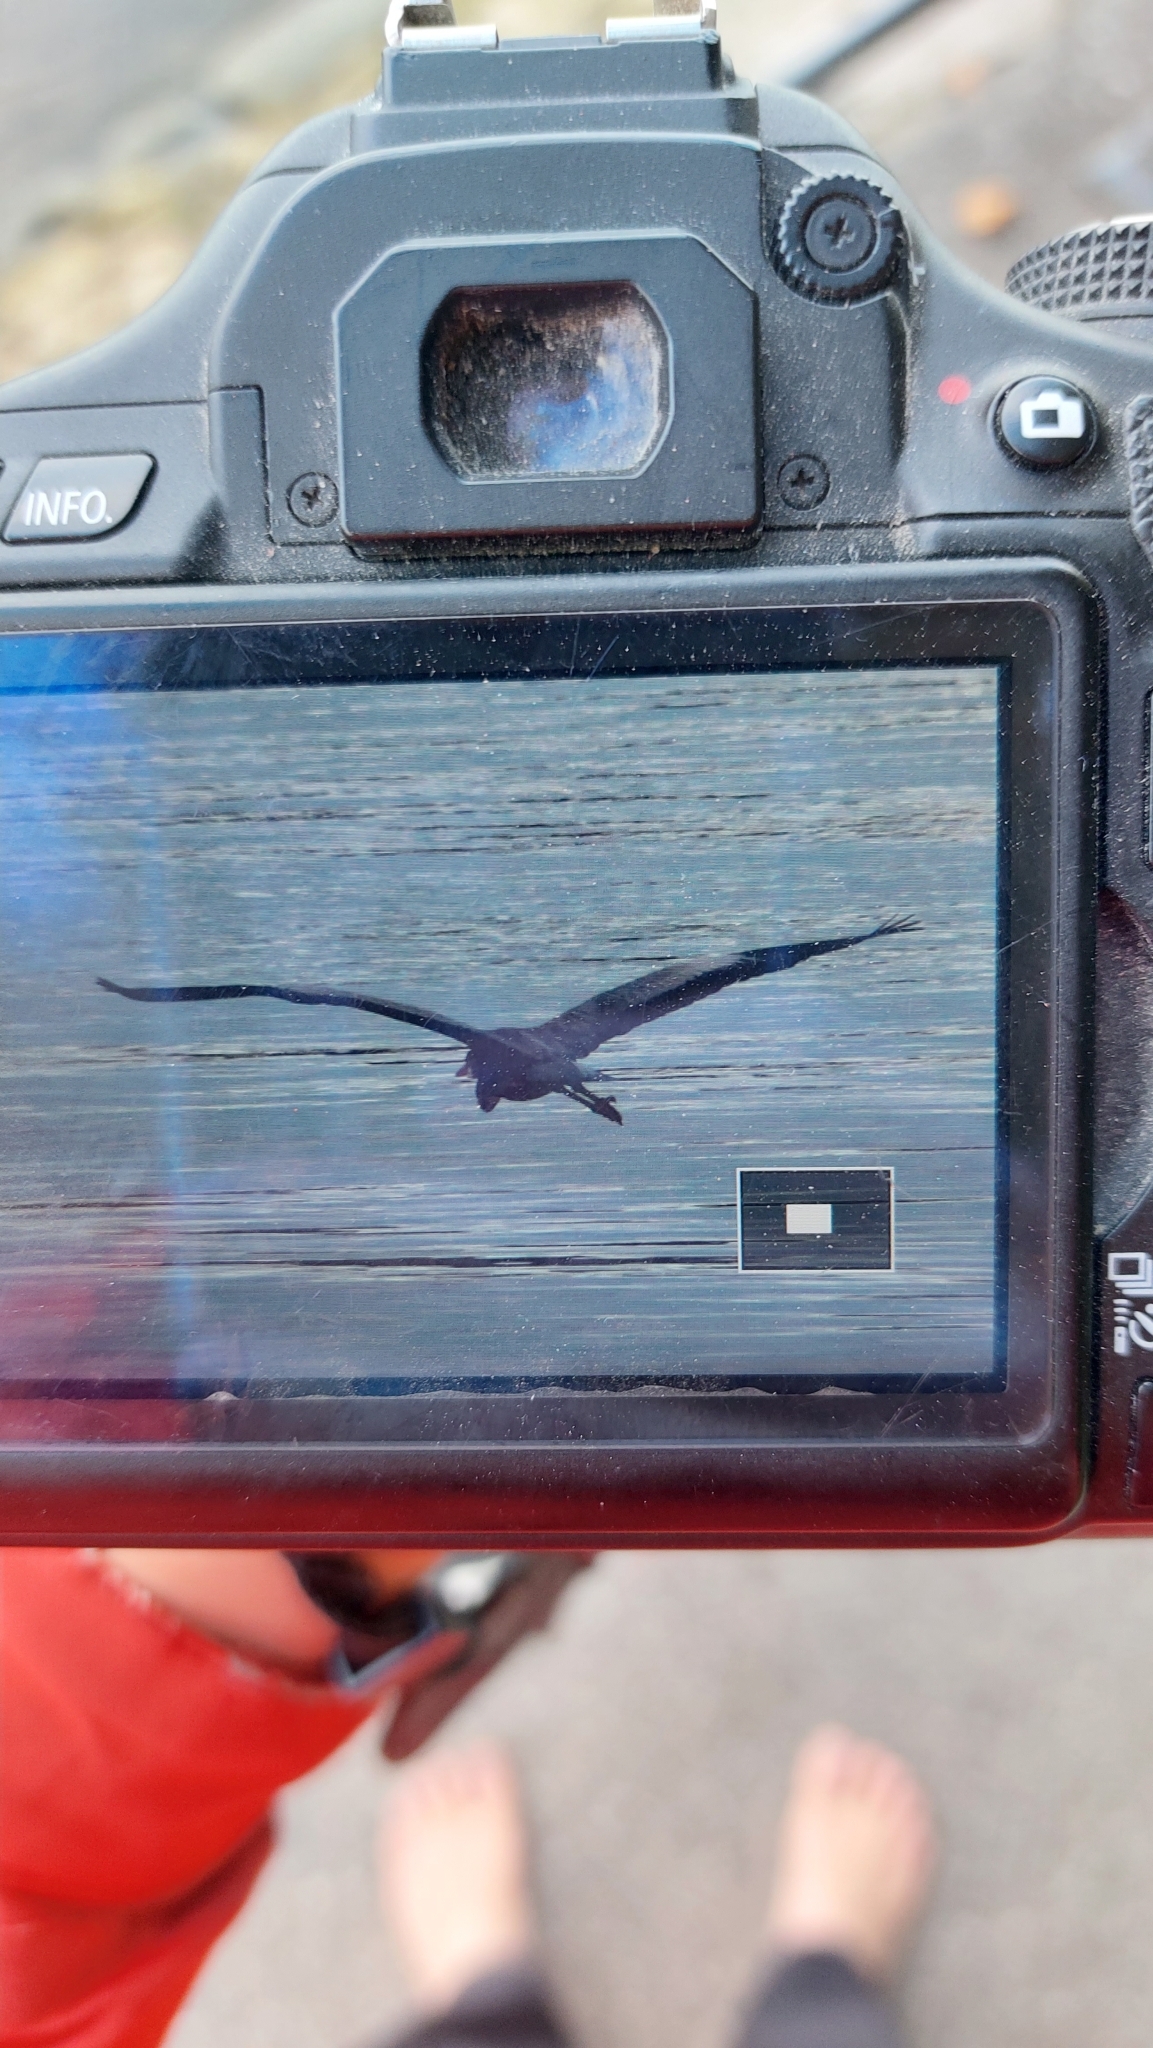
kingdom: Animalia
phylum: Chordata
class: Aves
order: Pelecaniformes
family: Ardeidae
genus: Ardea
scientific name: Ardea cinerea
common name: Grey heron
